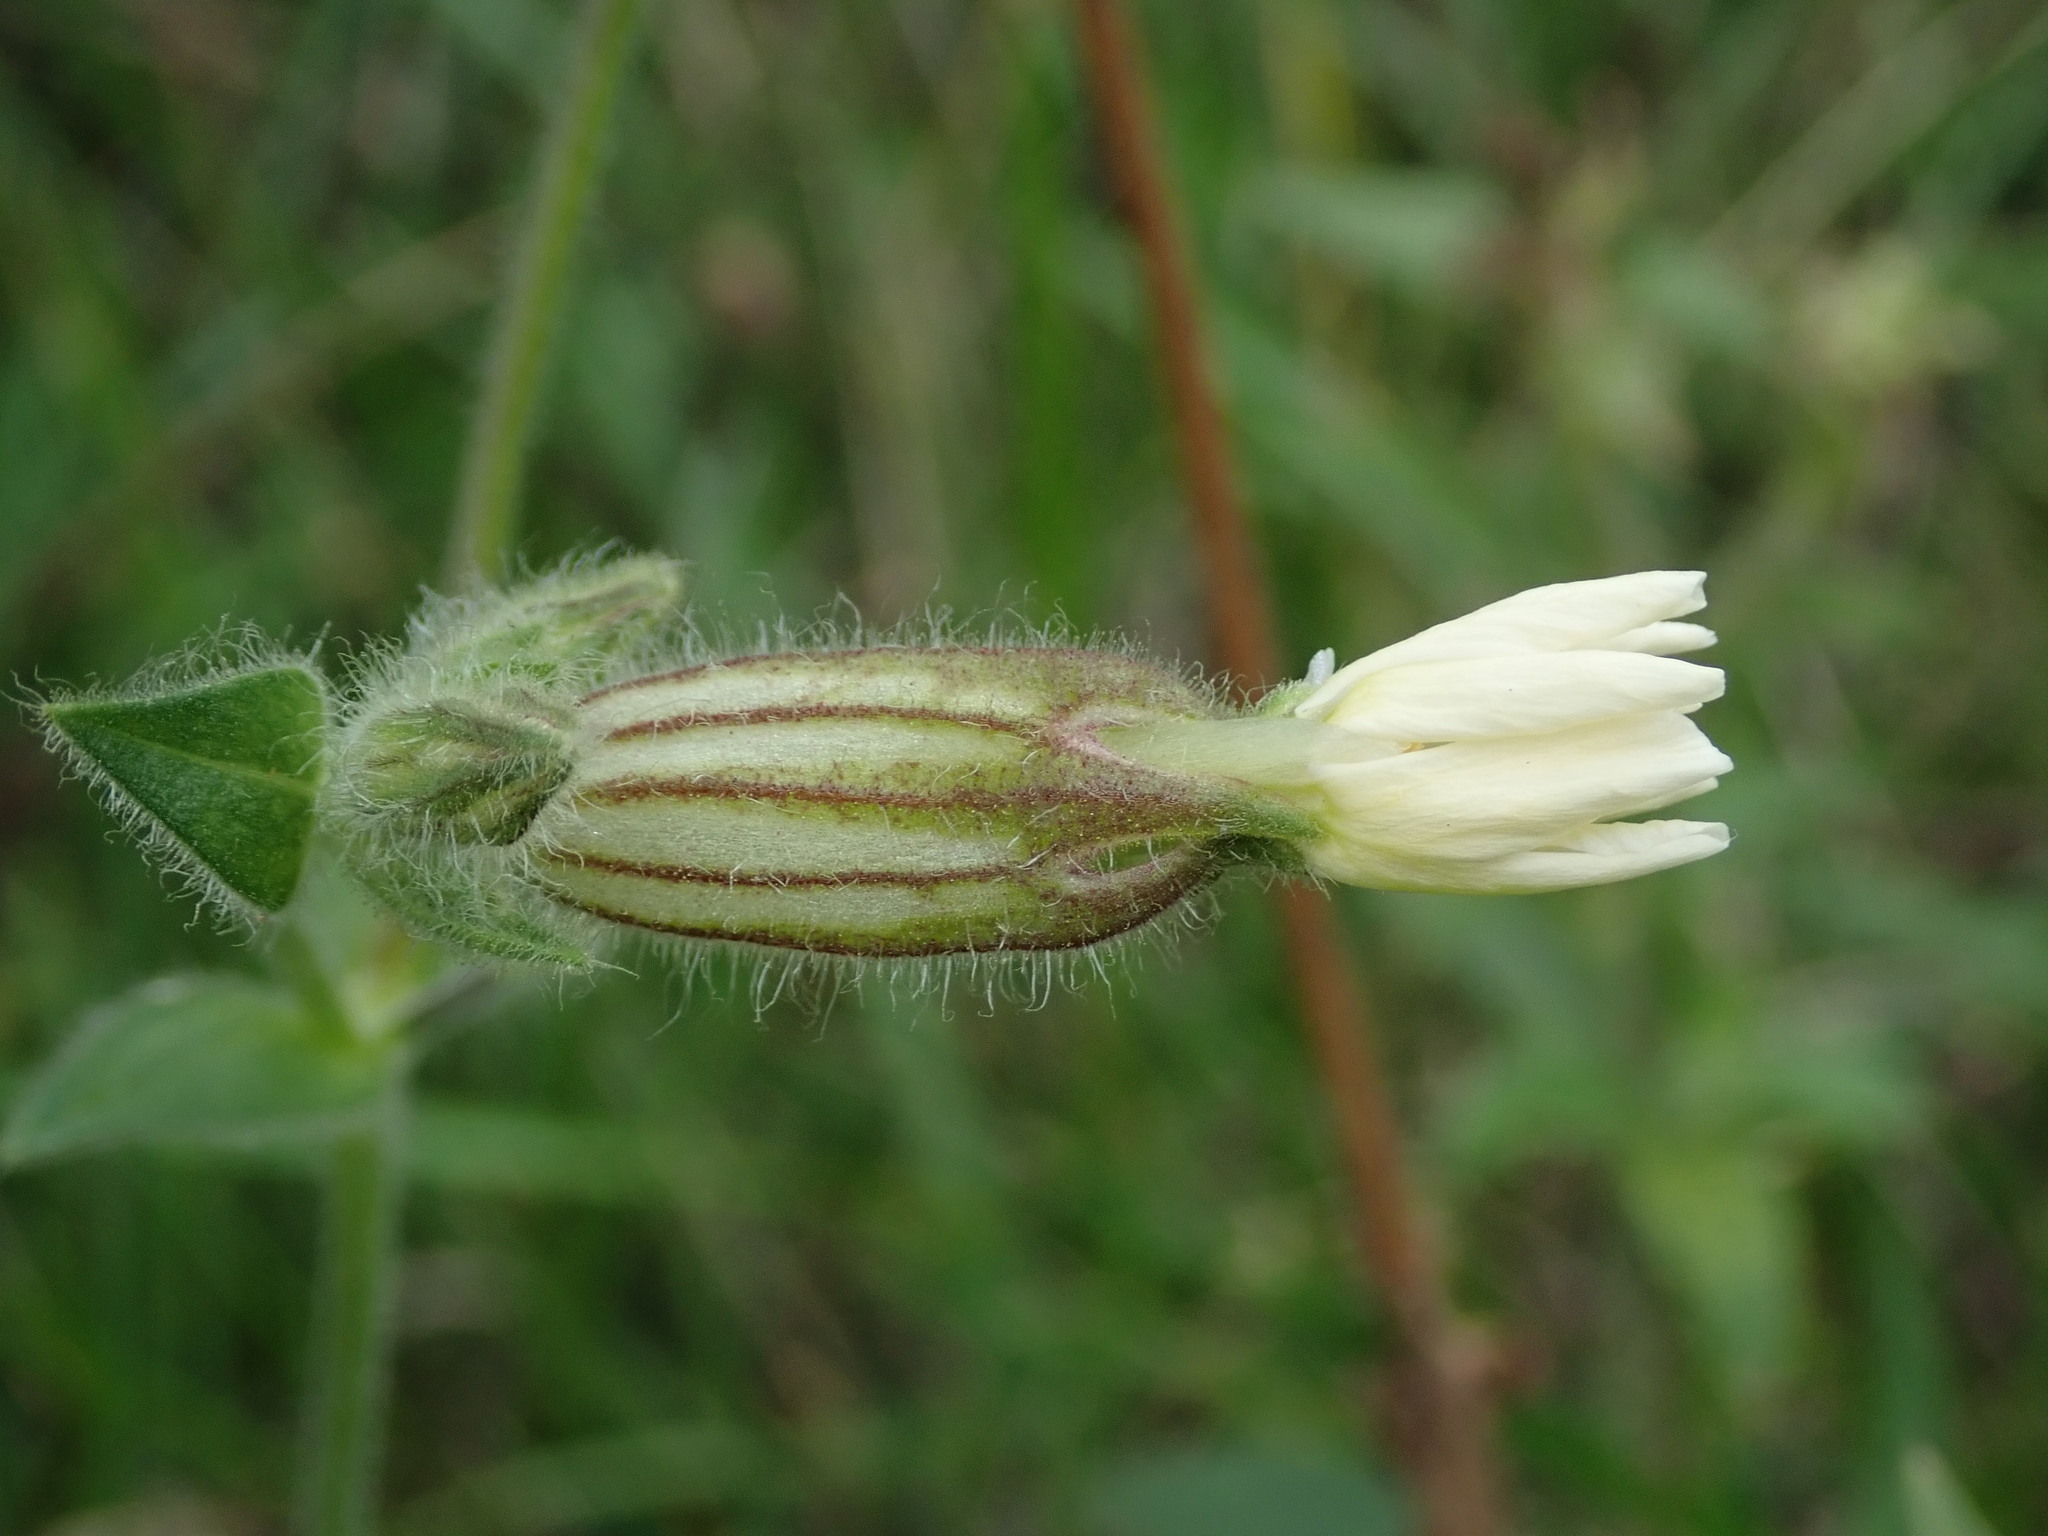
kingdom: Plantae
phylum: Tracheophyta
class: Magnoliopsida
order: Caryophyllales
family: Caryophyllaceae
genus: Silene
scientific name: Silene latifolia
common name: White campion
